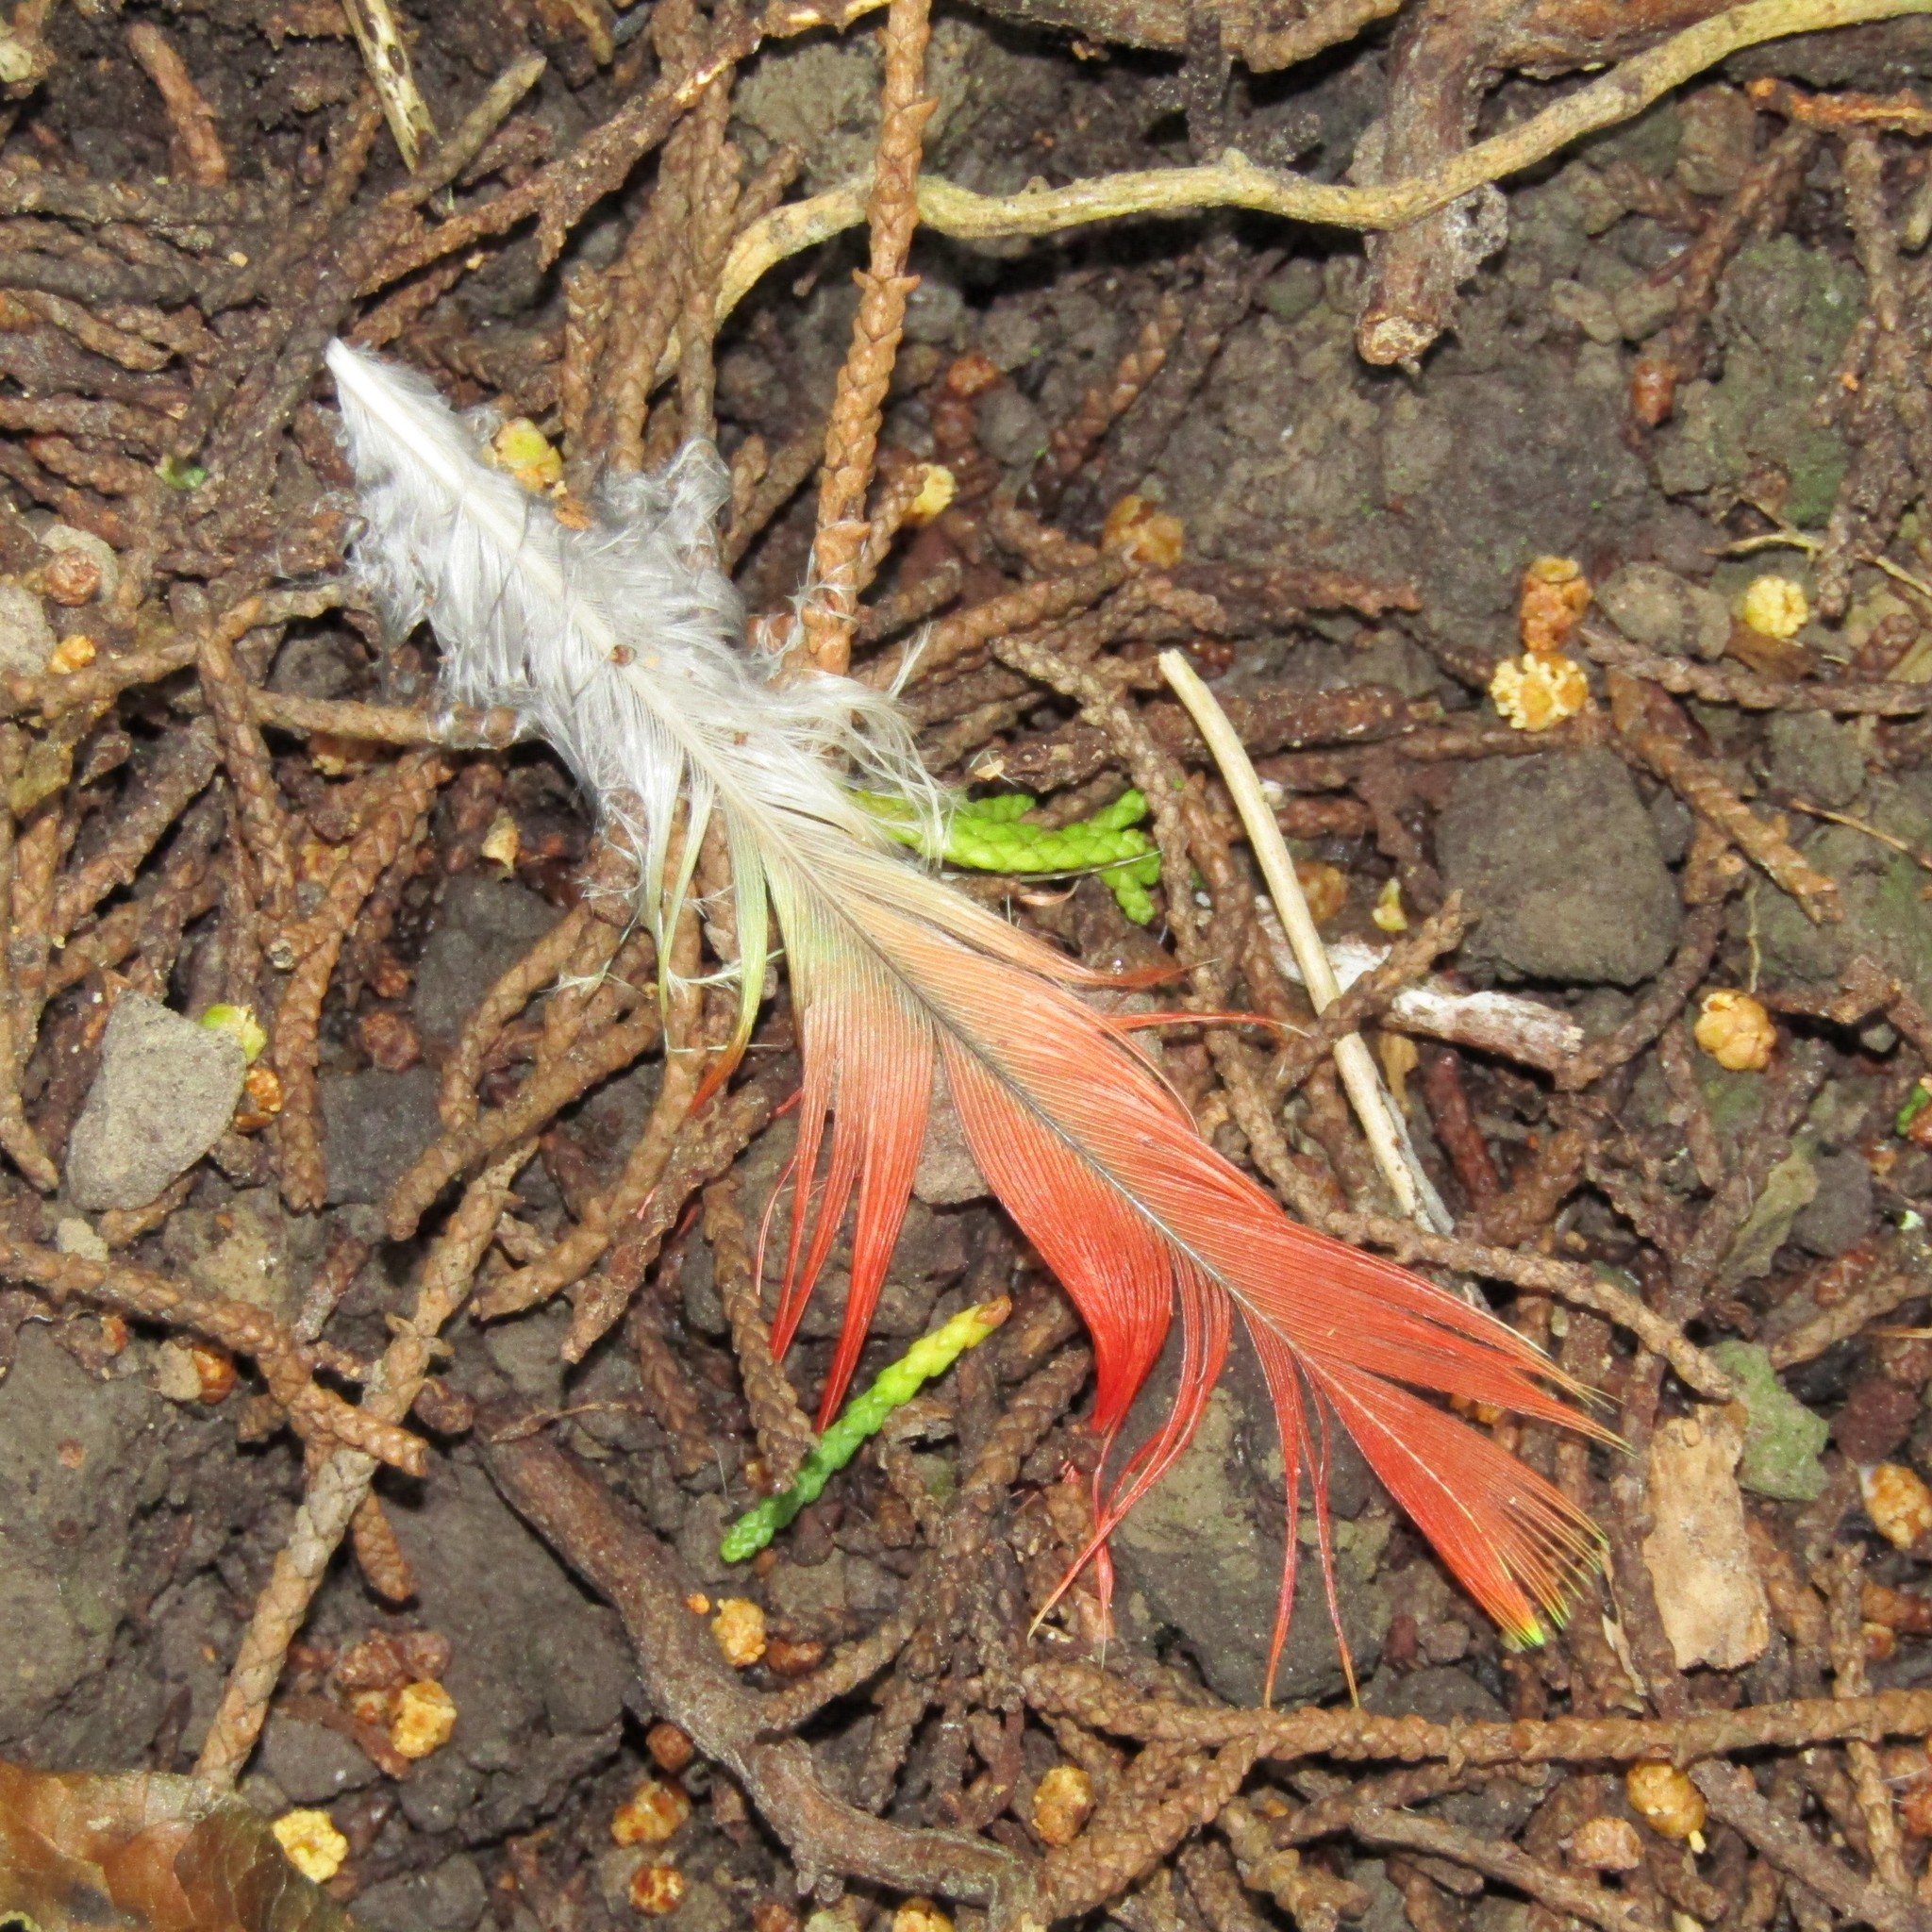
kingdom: Animalia
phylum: Chordata
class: Aves
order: Psittaciformes
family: Psittacidae
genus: Platycercus
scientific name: Platycercus eximius
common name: Eastern rosella
